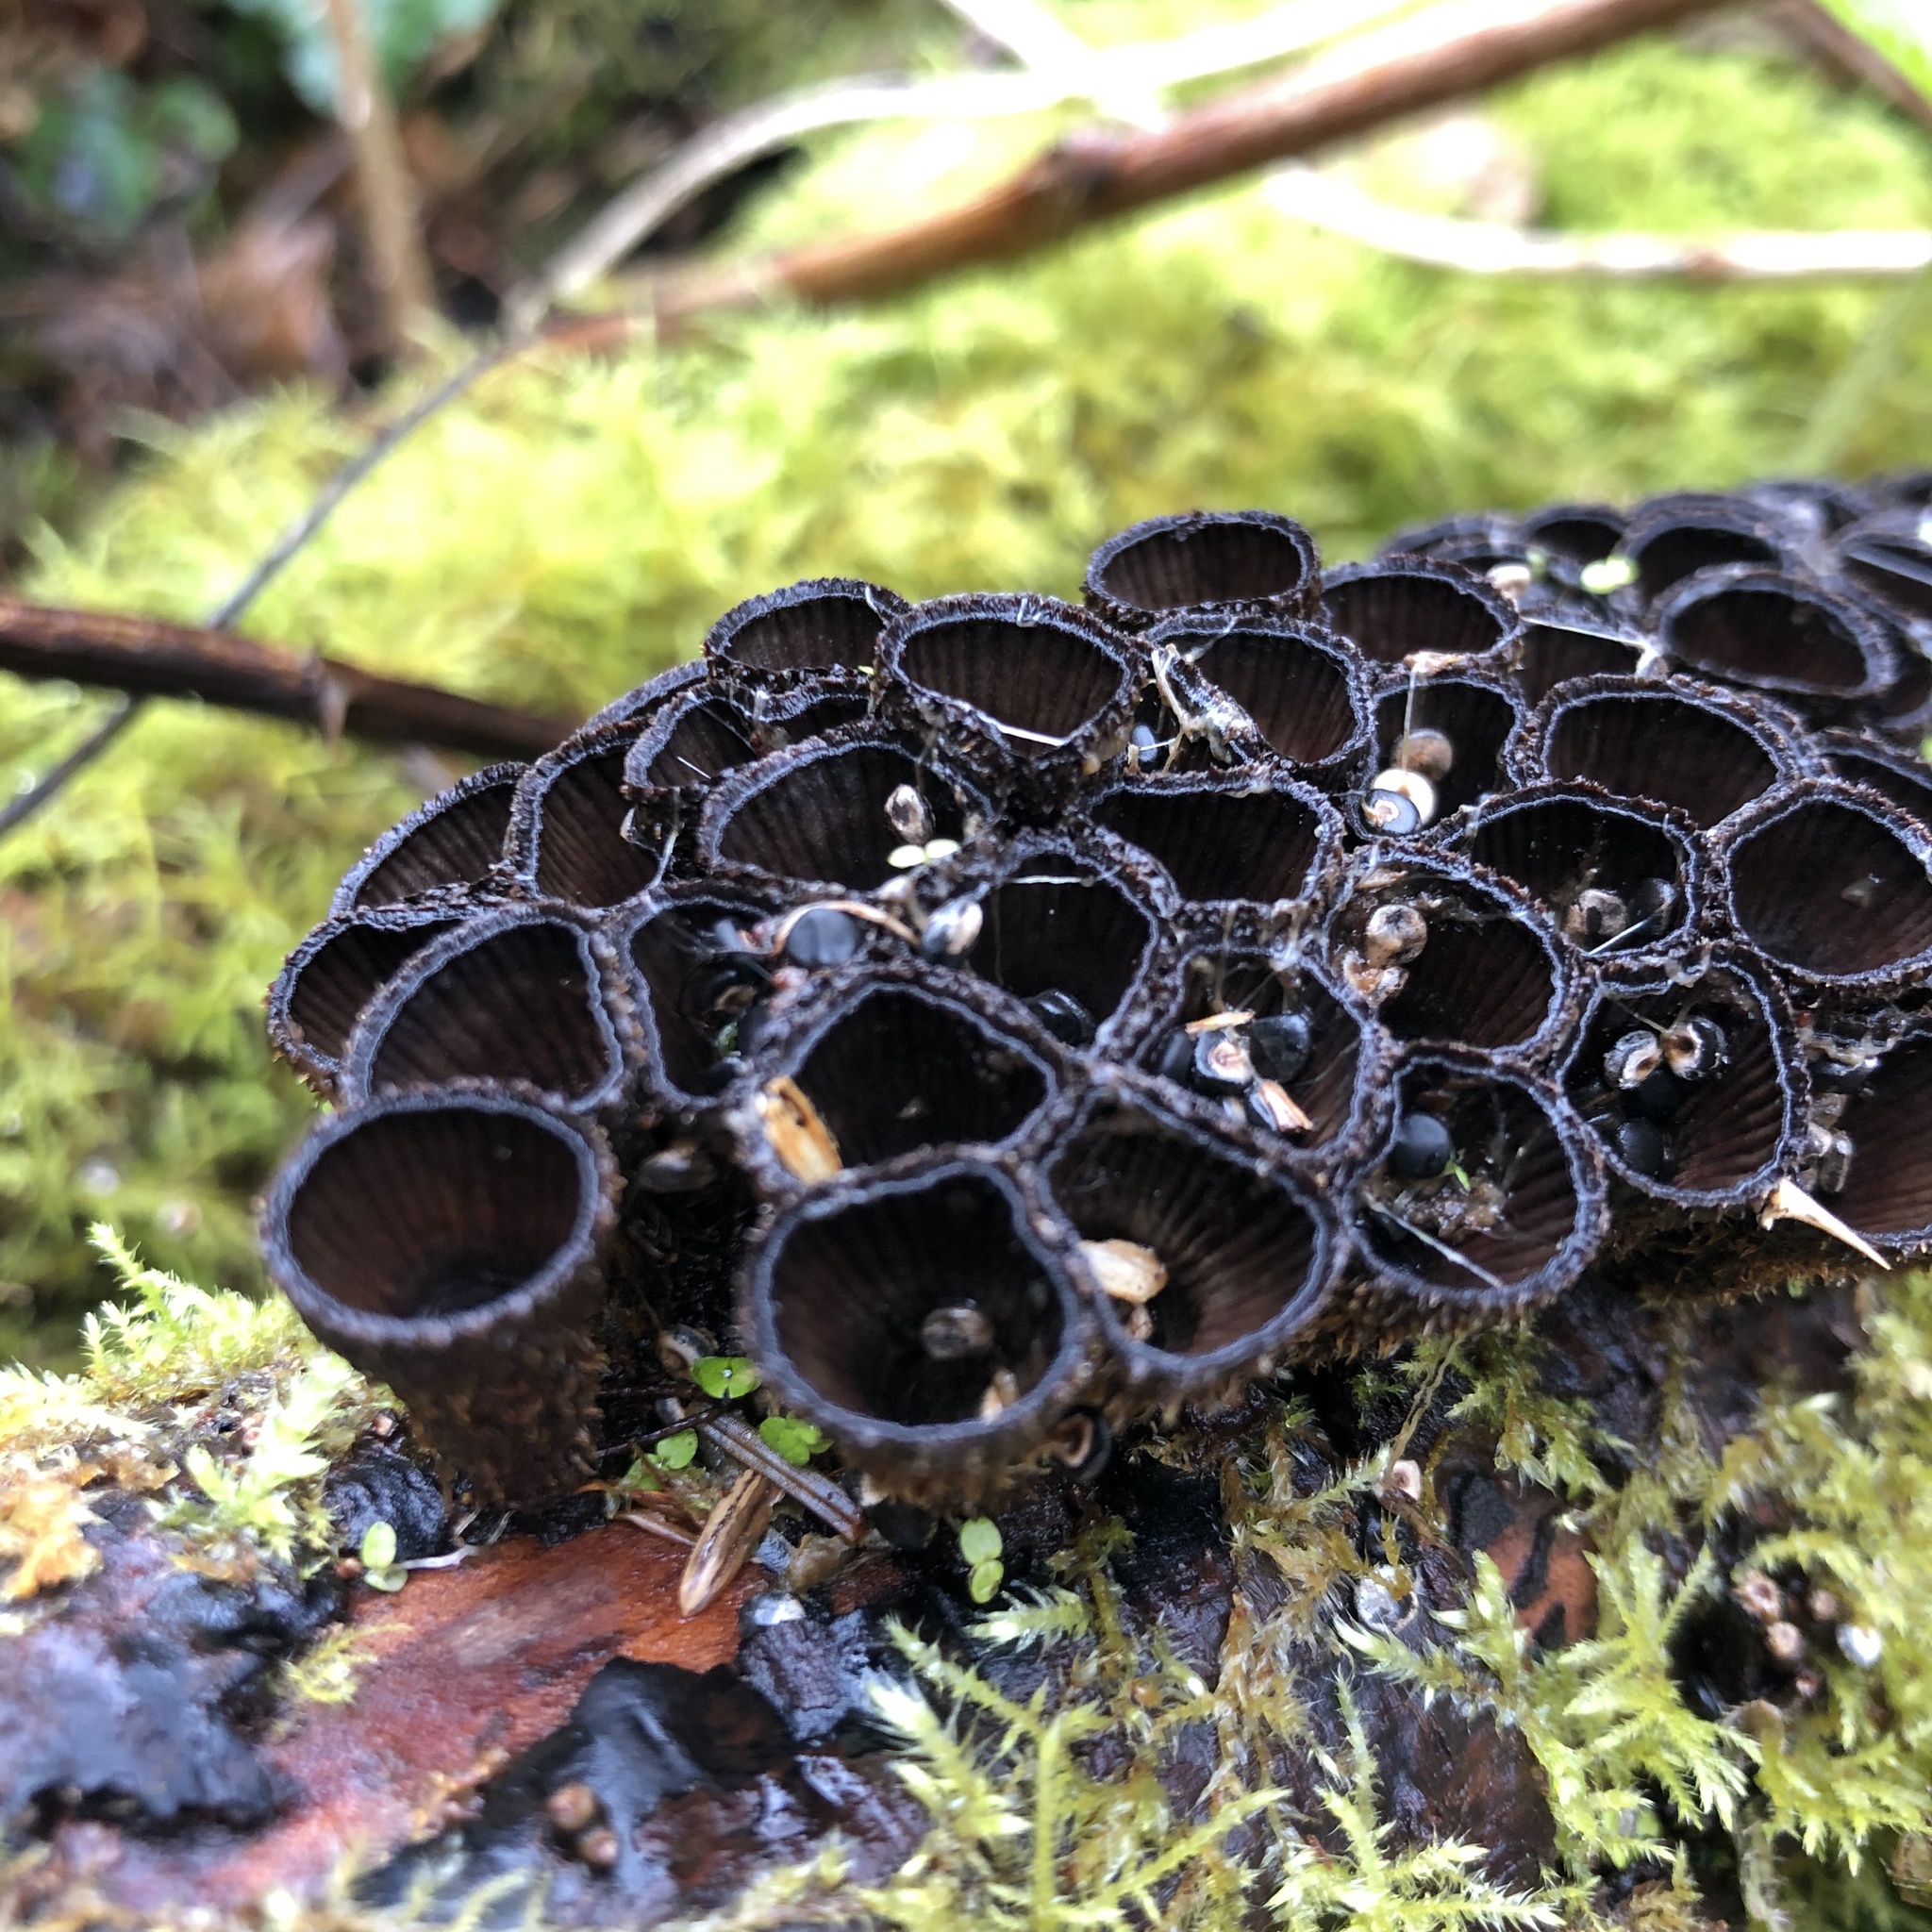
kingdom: Fungi
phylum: Basidiomycota
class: Agaricomycetes
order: Agaricales
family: Agaricaceae
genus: Cyathus
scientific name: Cyathus striatus
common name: Fluted bird's nest
